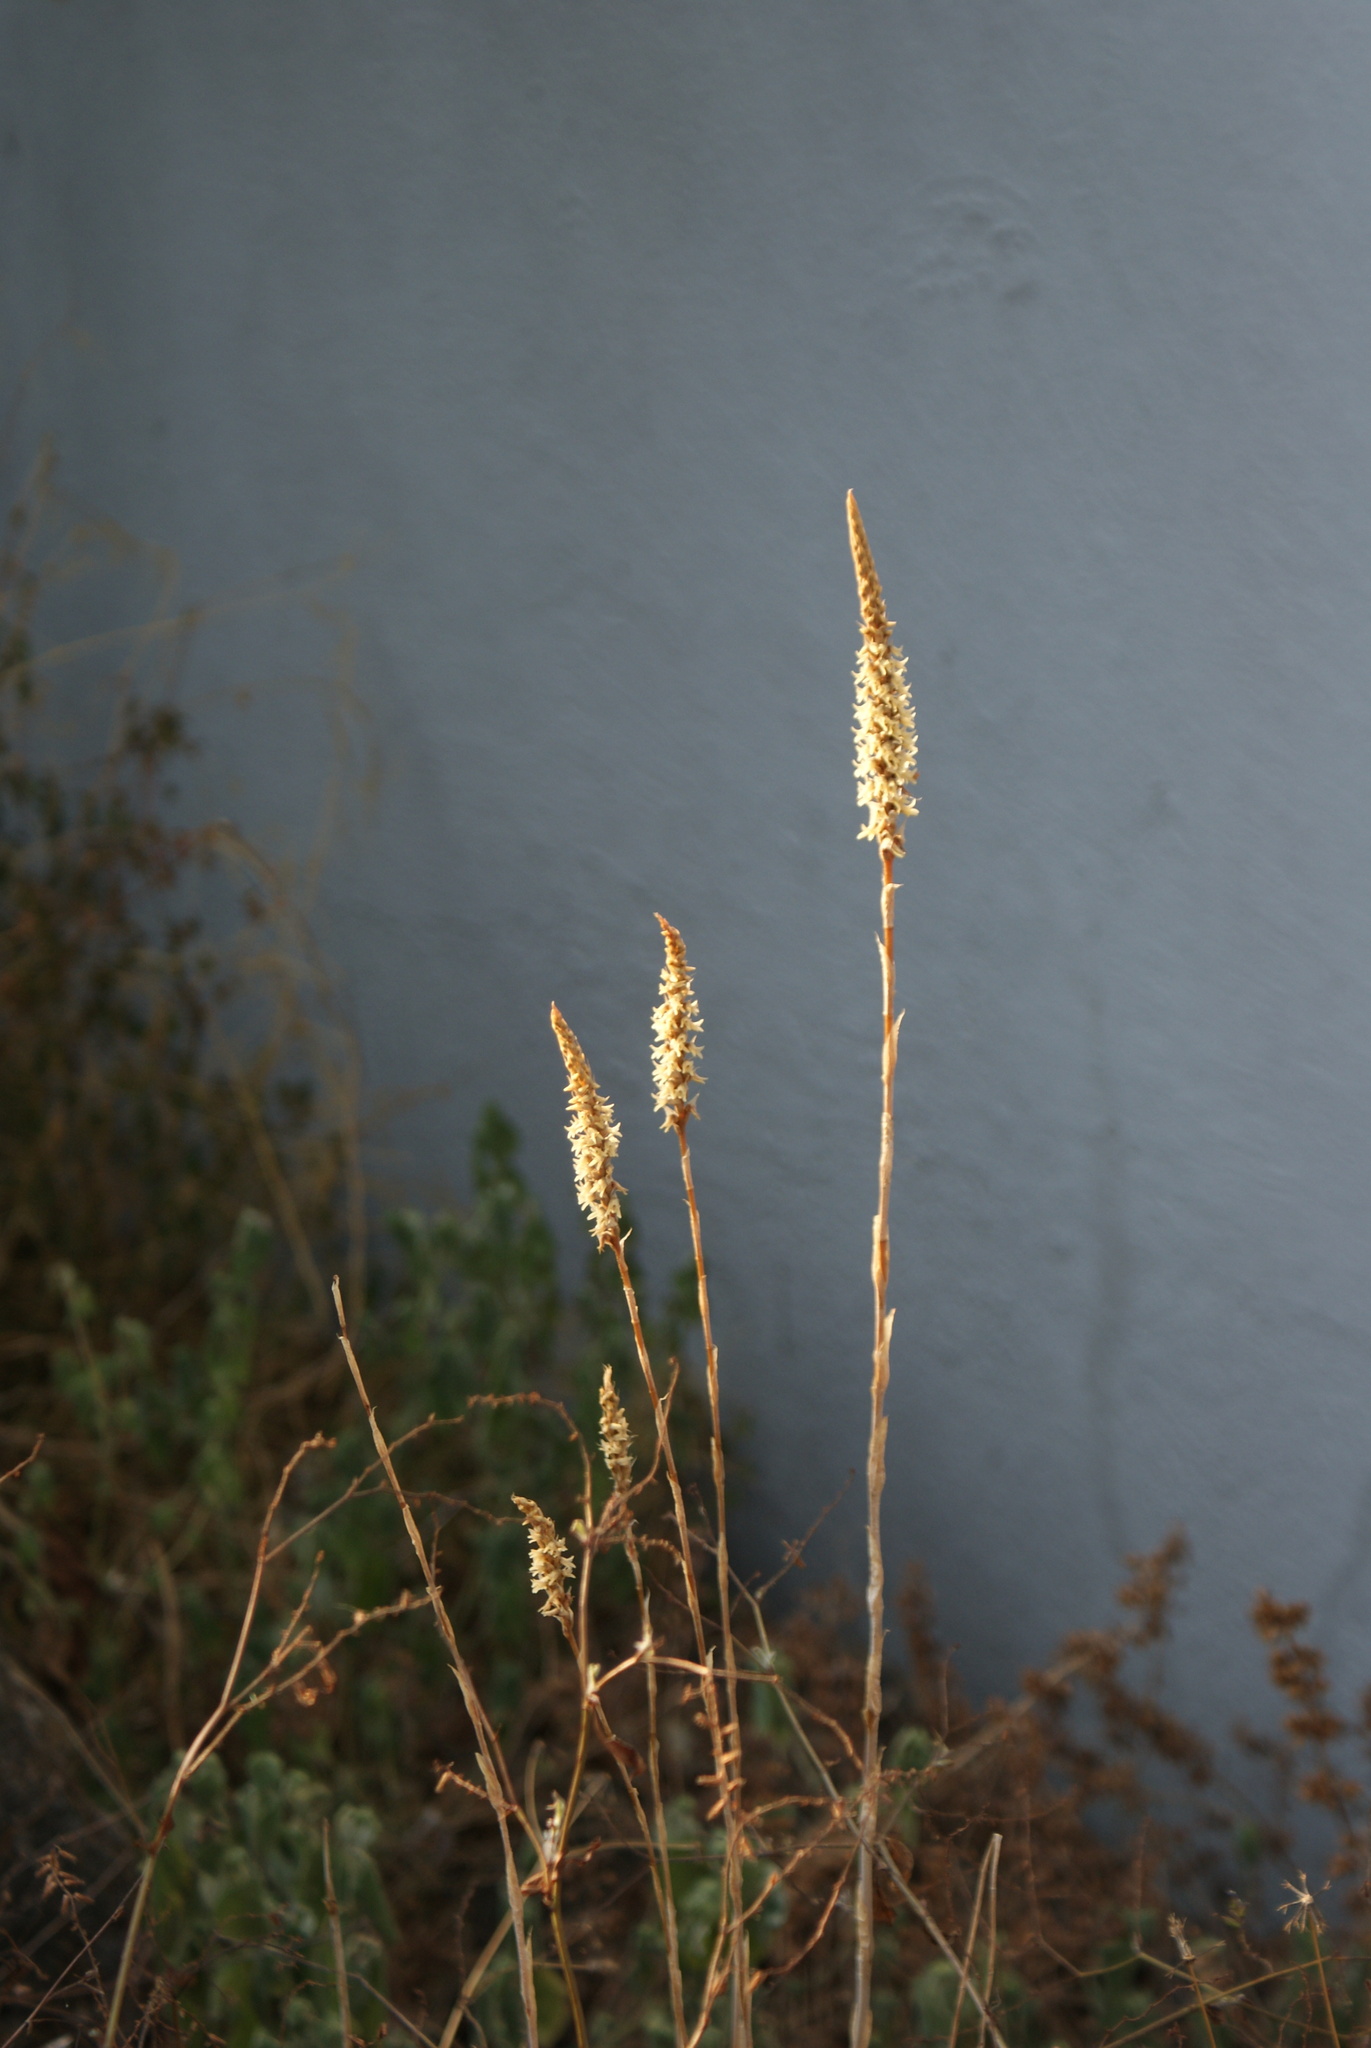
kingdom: Plantae
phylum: Tracheophyta
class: Liliopsida
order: Asparagales
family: Orchidaceae
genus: Aulosepalum
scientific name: Aulosepalum pyramidale
